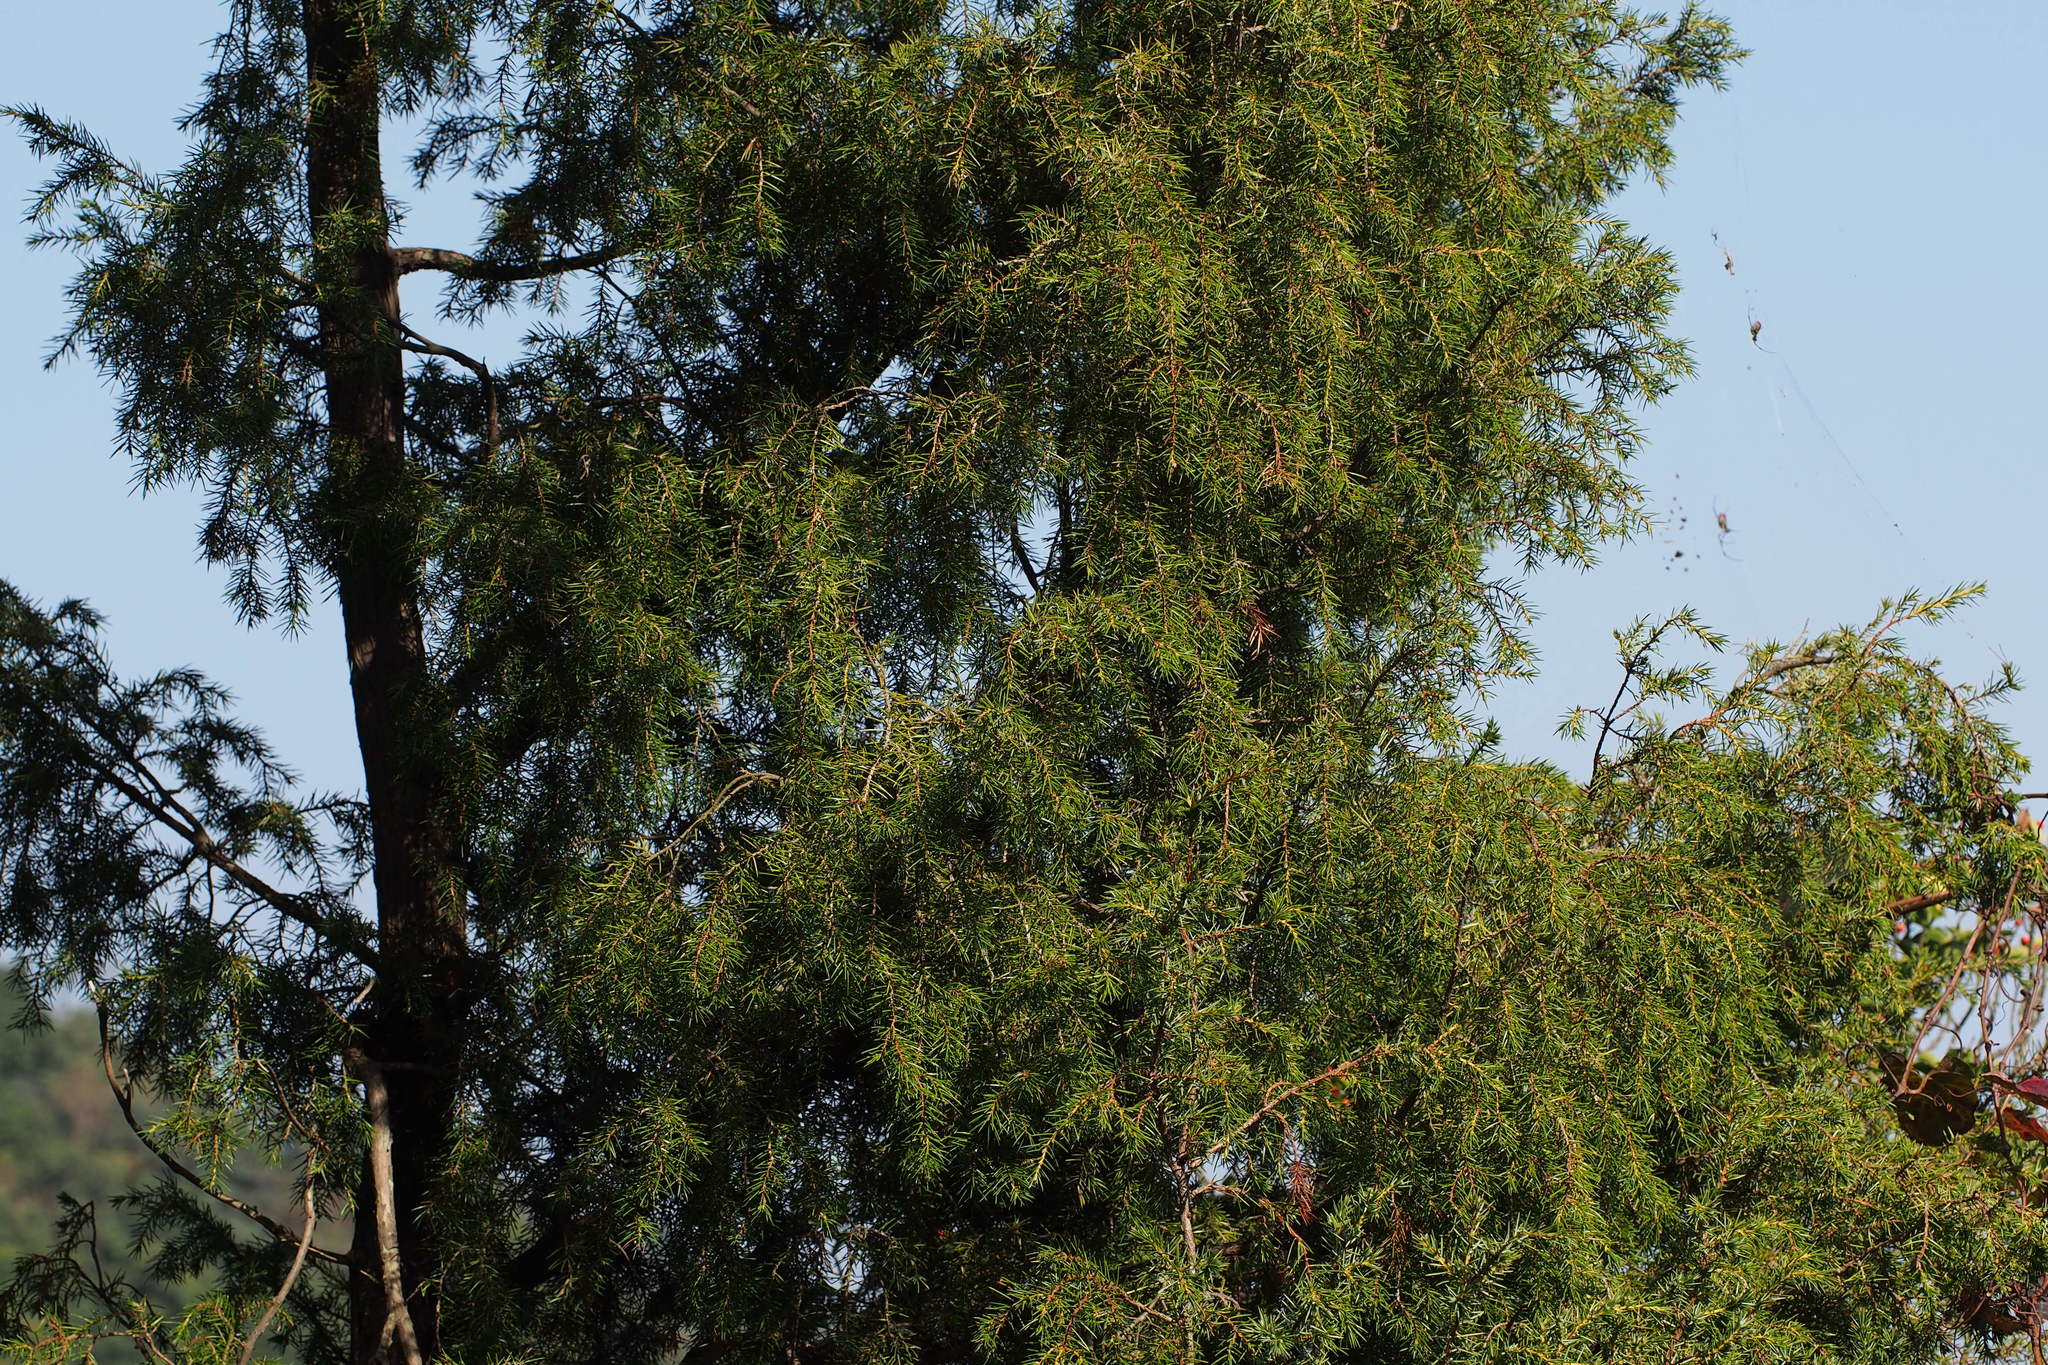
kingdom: Plantae
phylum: Tracheophyta
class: Pinopsida
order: Pinales
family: Cupressaceae
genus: Juniperus
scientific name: Juniperus rigida
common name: Needle juniper
